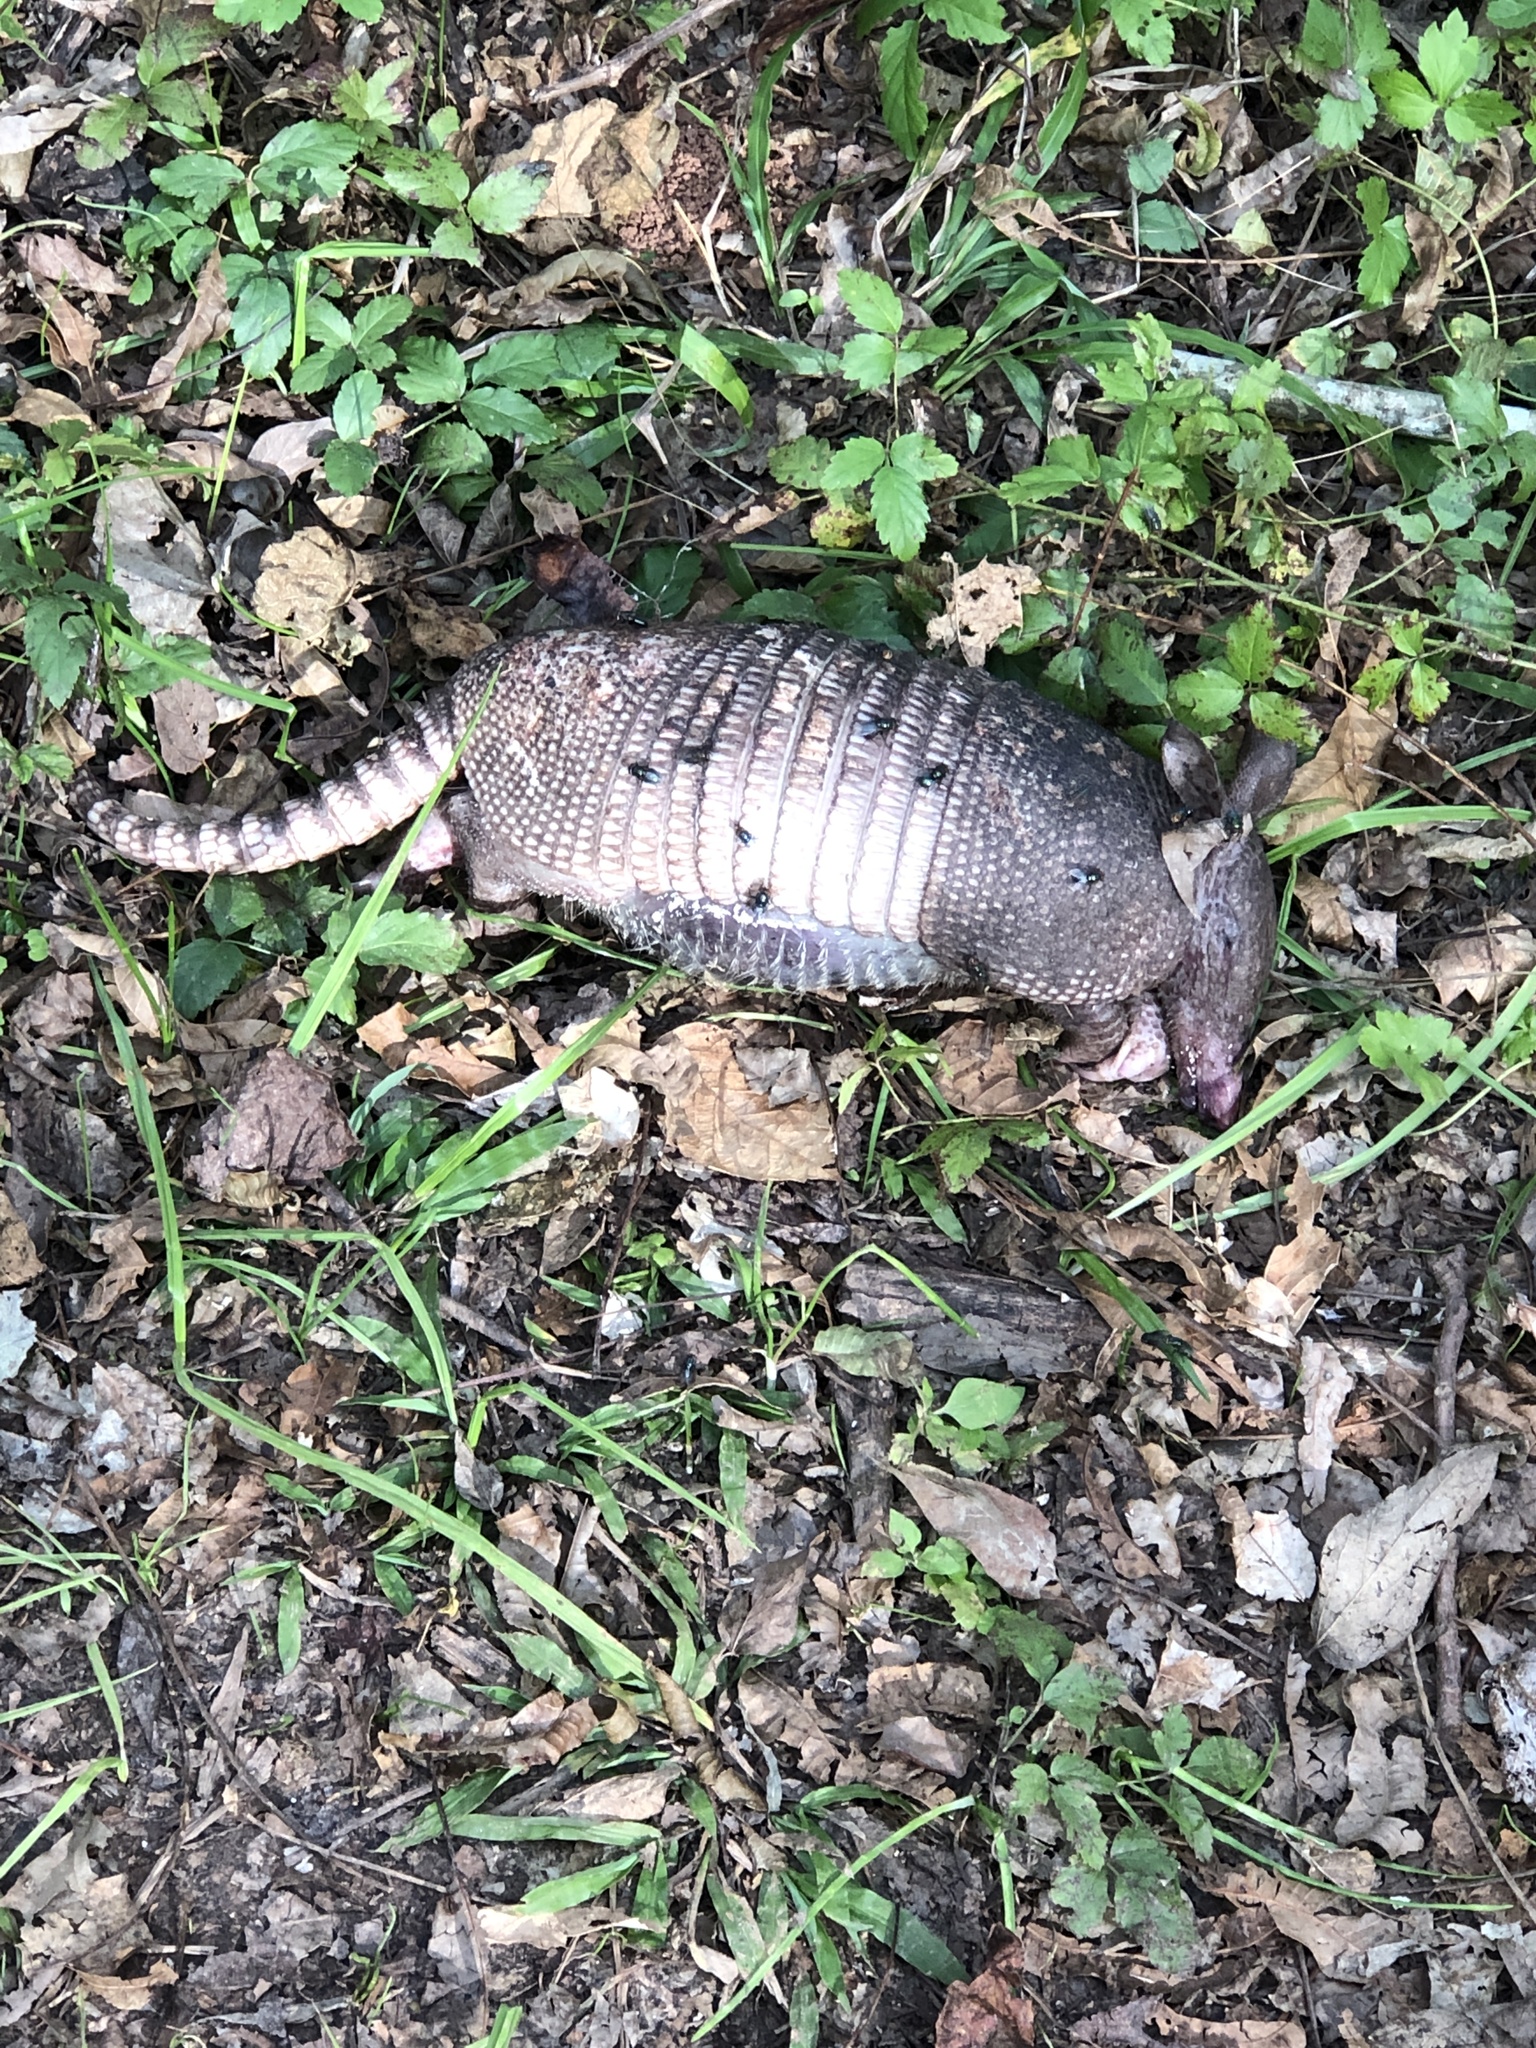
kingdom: Animalia
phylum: Chordata
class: Mammalia
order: Cingulata
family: Dasypodidae
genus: Dasypus
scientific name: Dasypus novemcinctus
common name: Nine-banded armadillo
